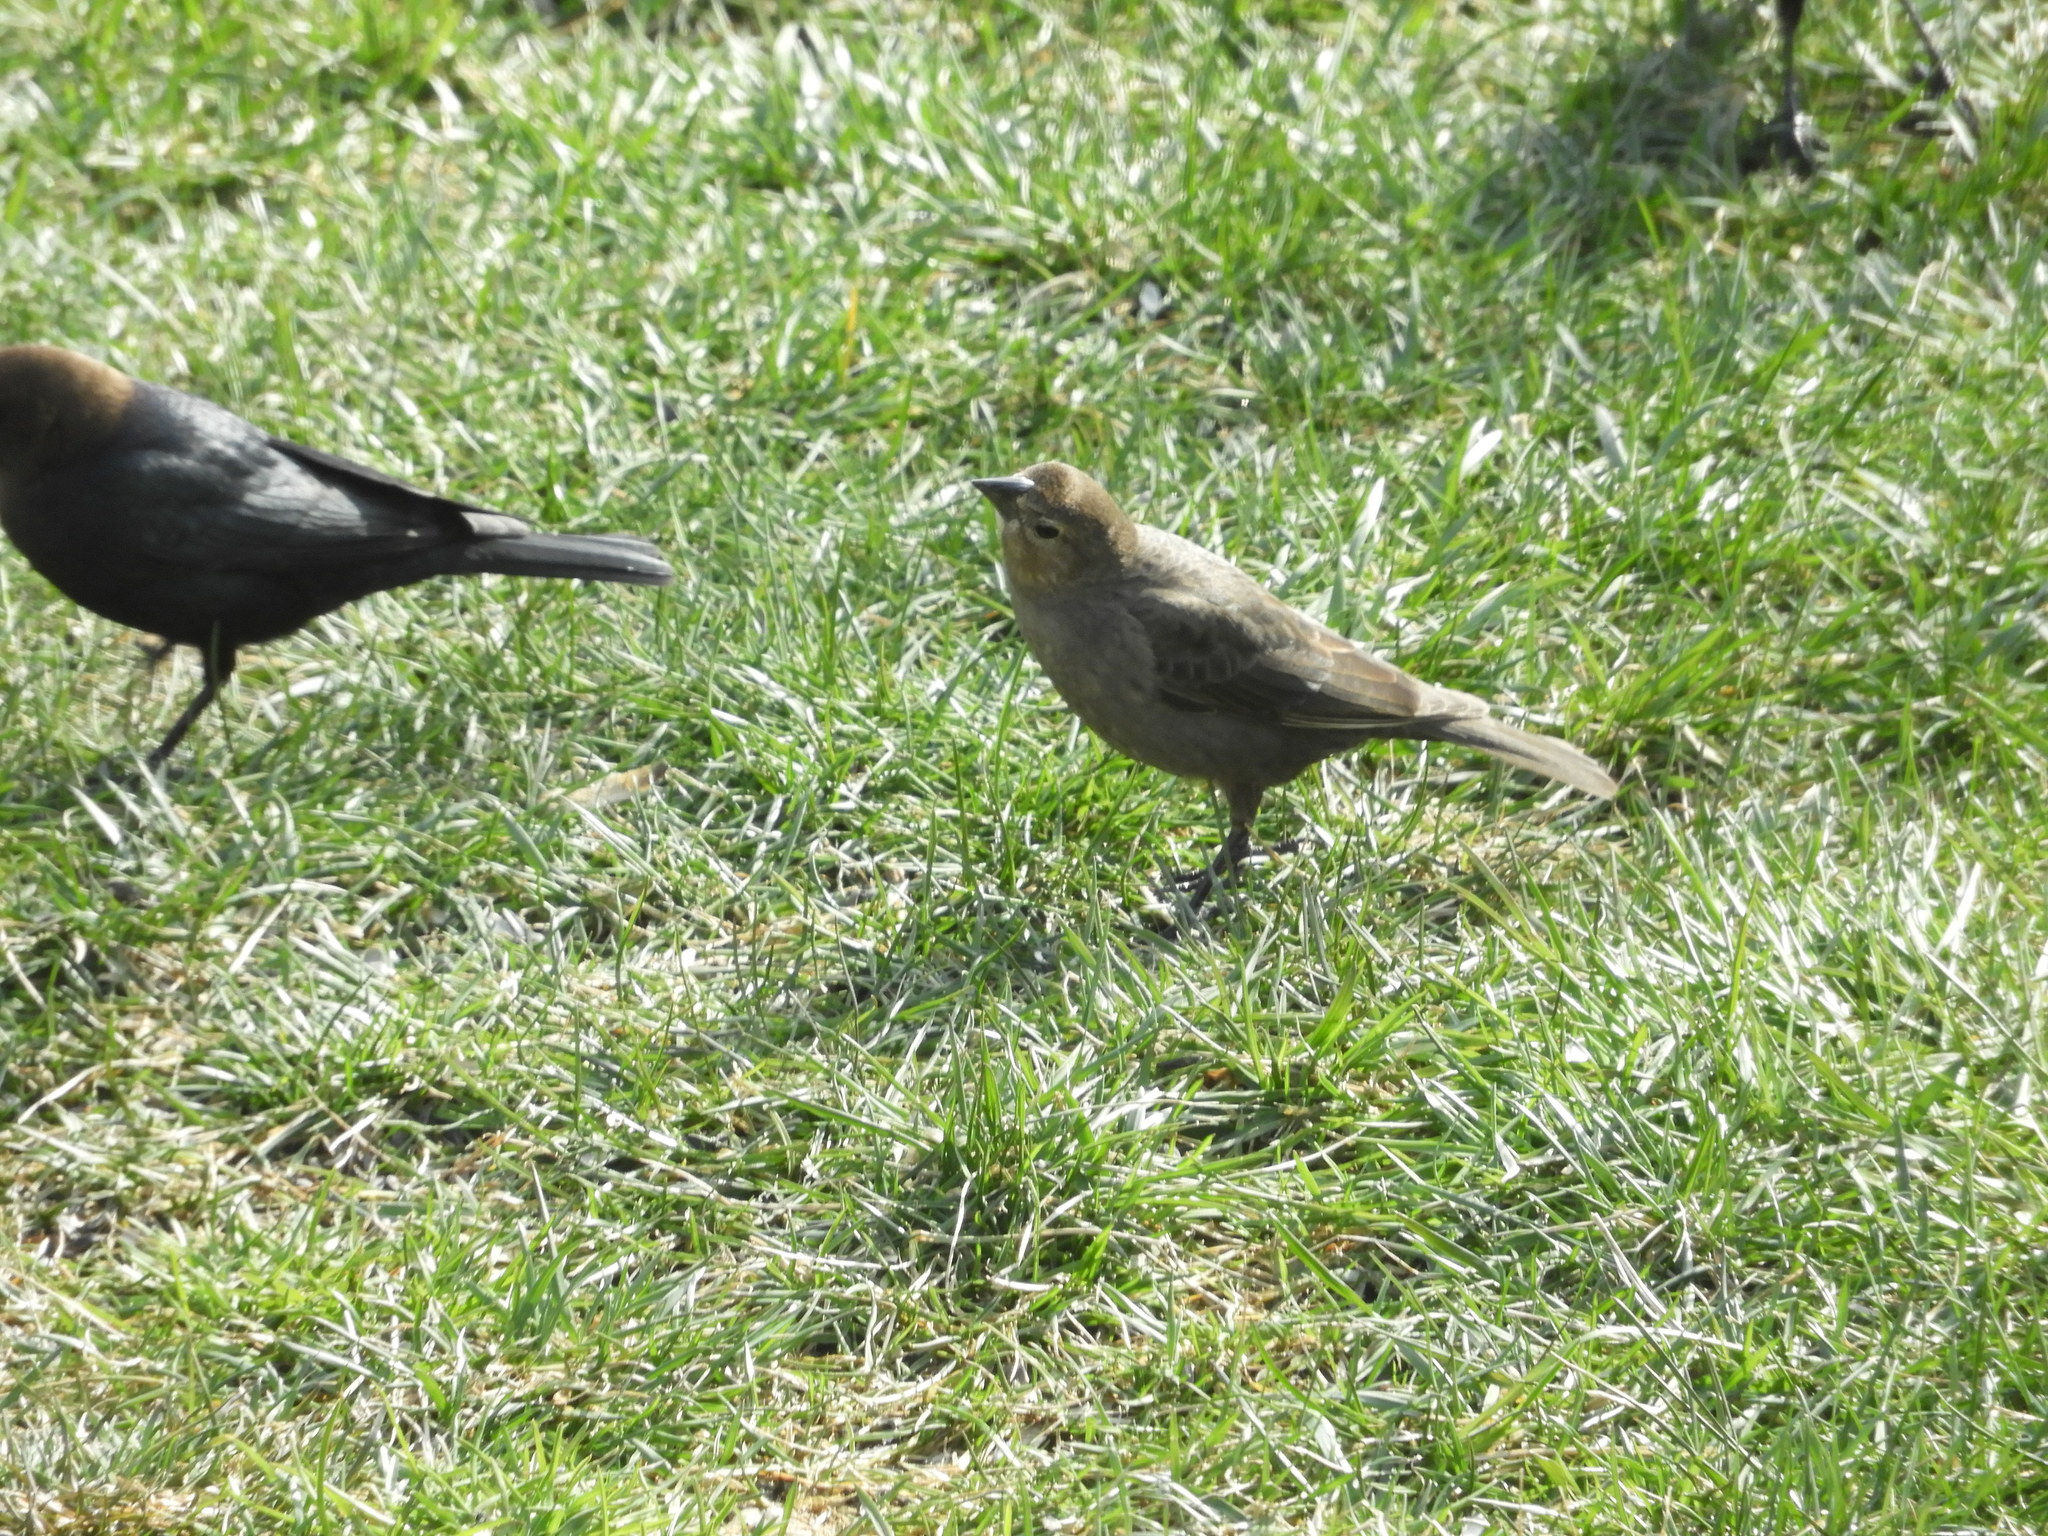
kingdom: Animalia
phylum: Chordata
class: Aves
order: Passeriformes
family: Icteridae
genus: Molothrus
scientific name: Molothrus ater
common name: Brown-headed cowbird
